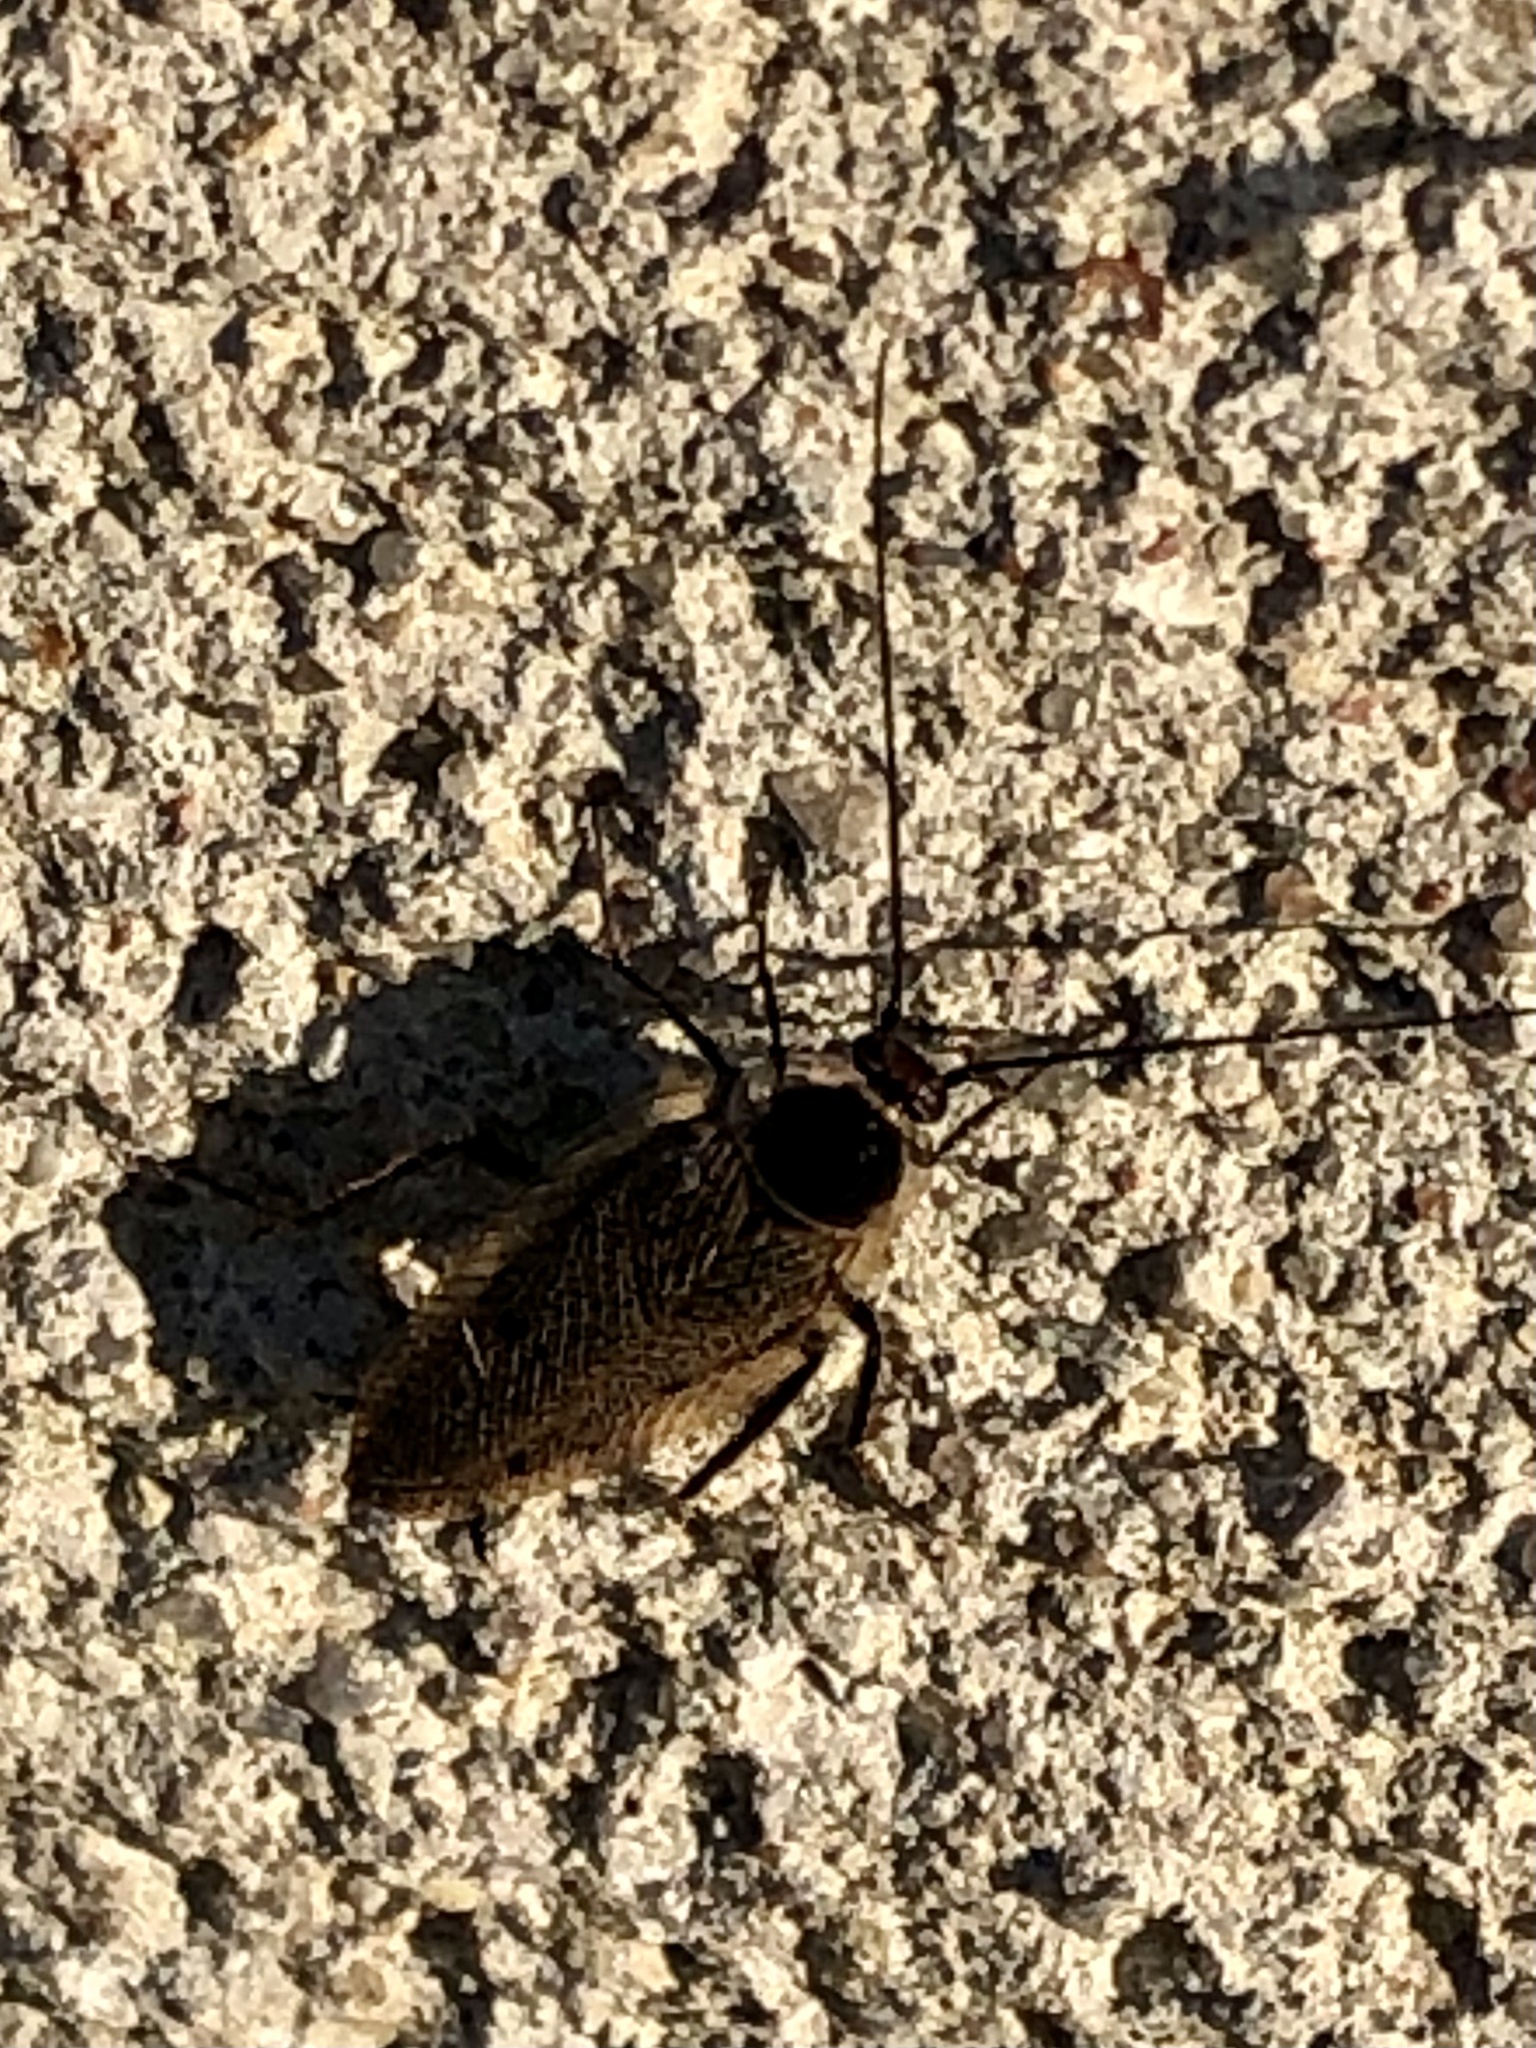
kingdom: Animalia
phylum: Arthropoda
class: Insecta
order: Blattodea
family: Ectobiidae
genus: Ectobius
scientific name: Ectobius lapponicus
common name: Dusky cockroach
